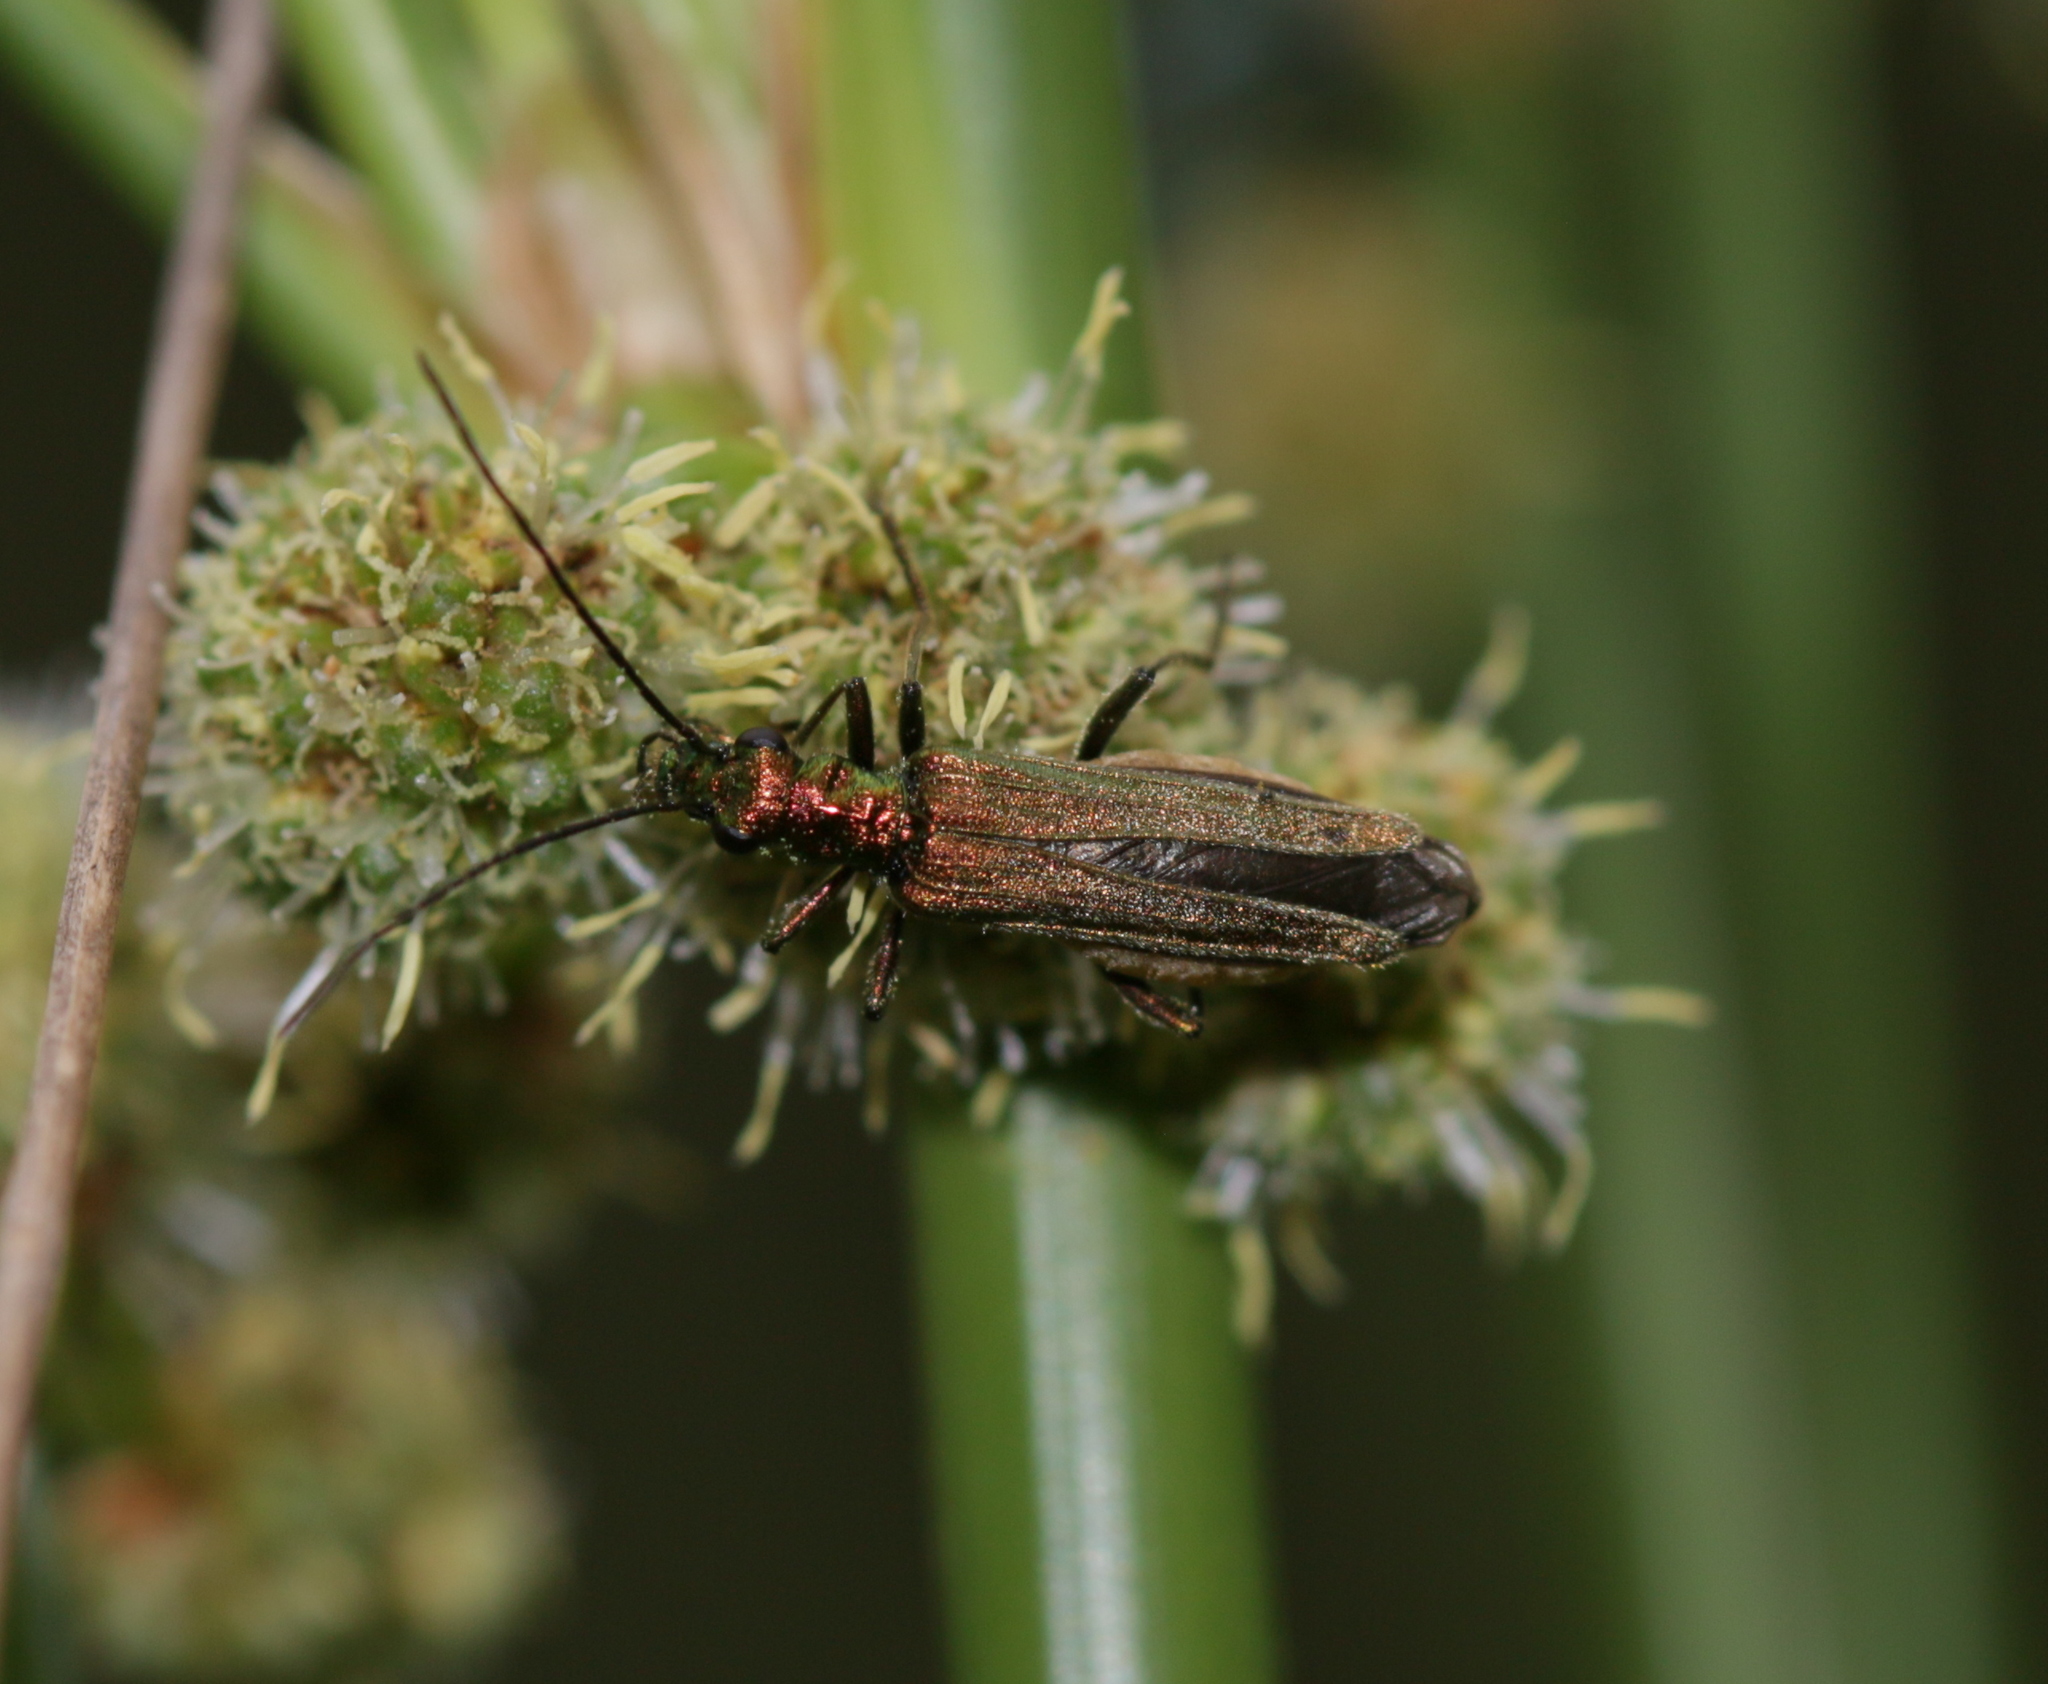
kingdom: Animalia
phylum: Arthropoda
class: Insecta
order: Coleoptera
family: Oedemeridae
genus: Oedemera
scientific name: Oedemera nobilis
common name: Swollen-thighed beetle
